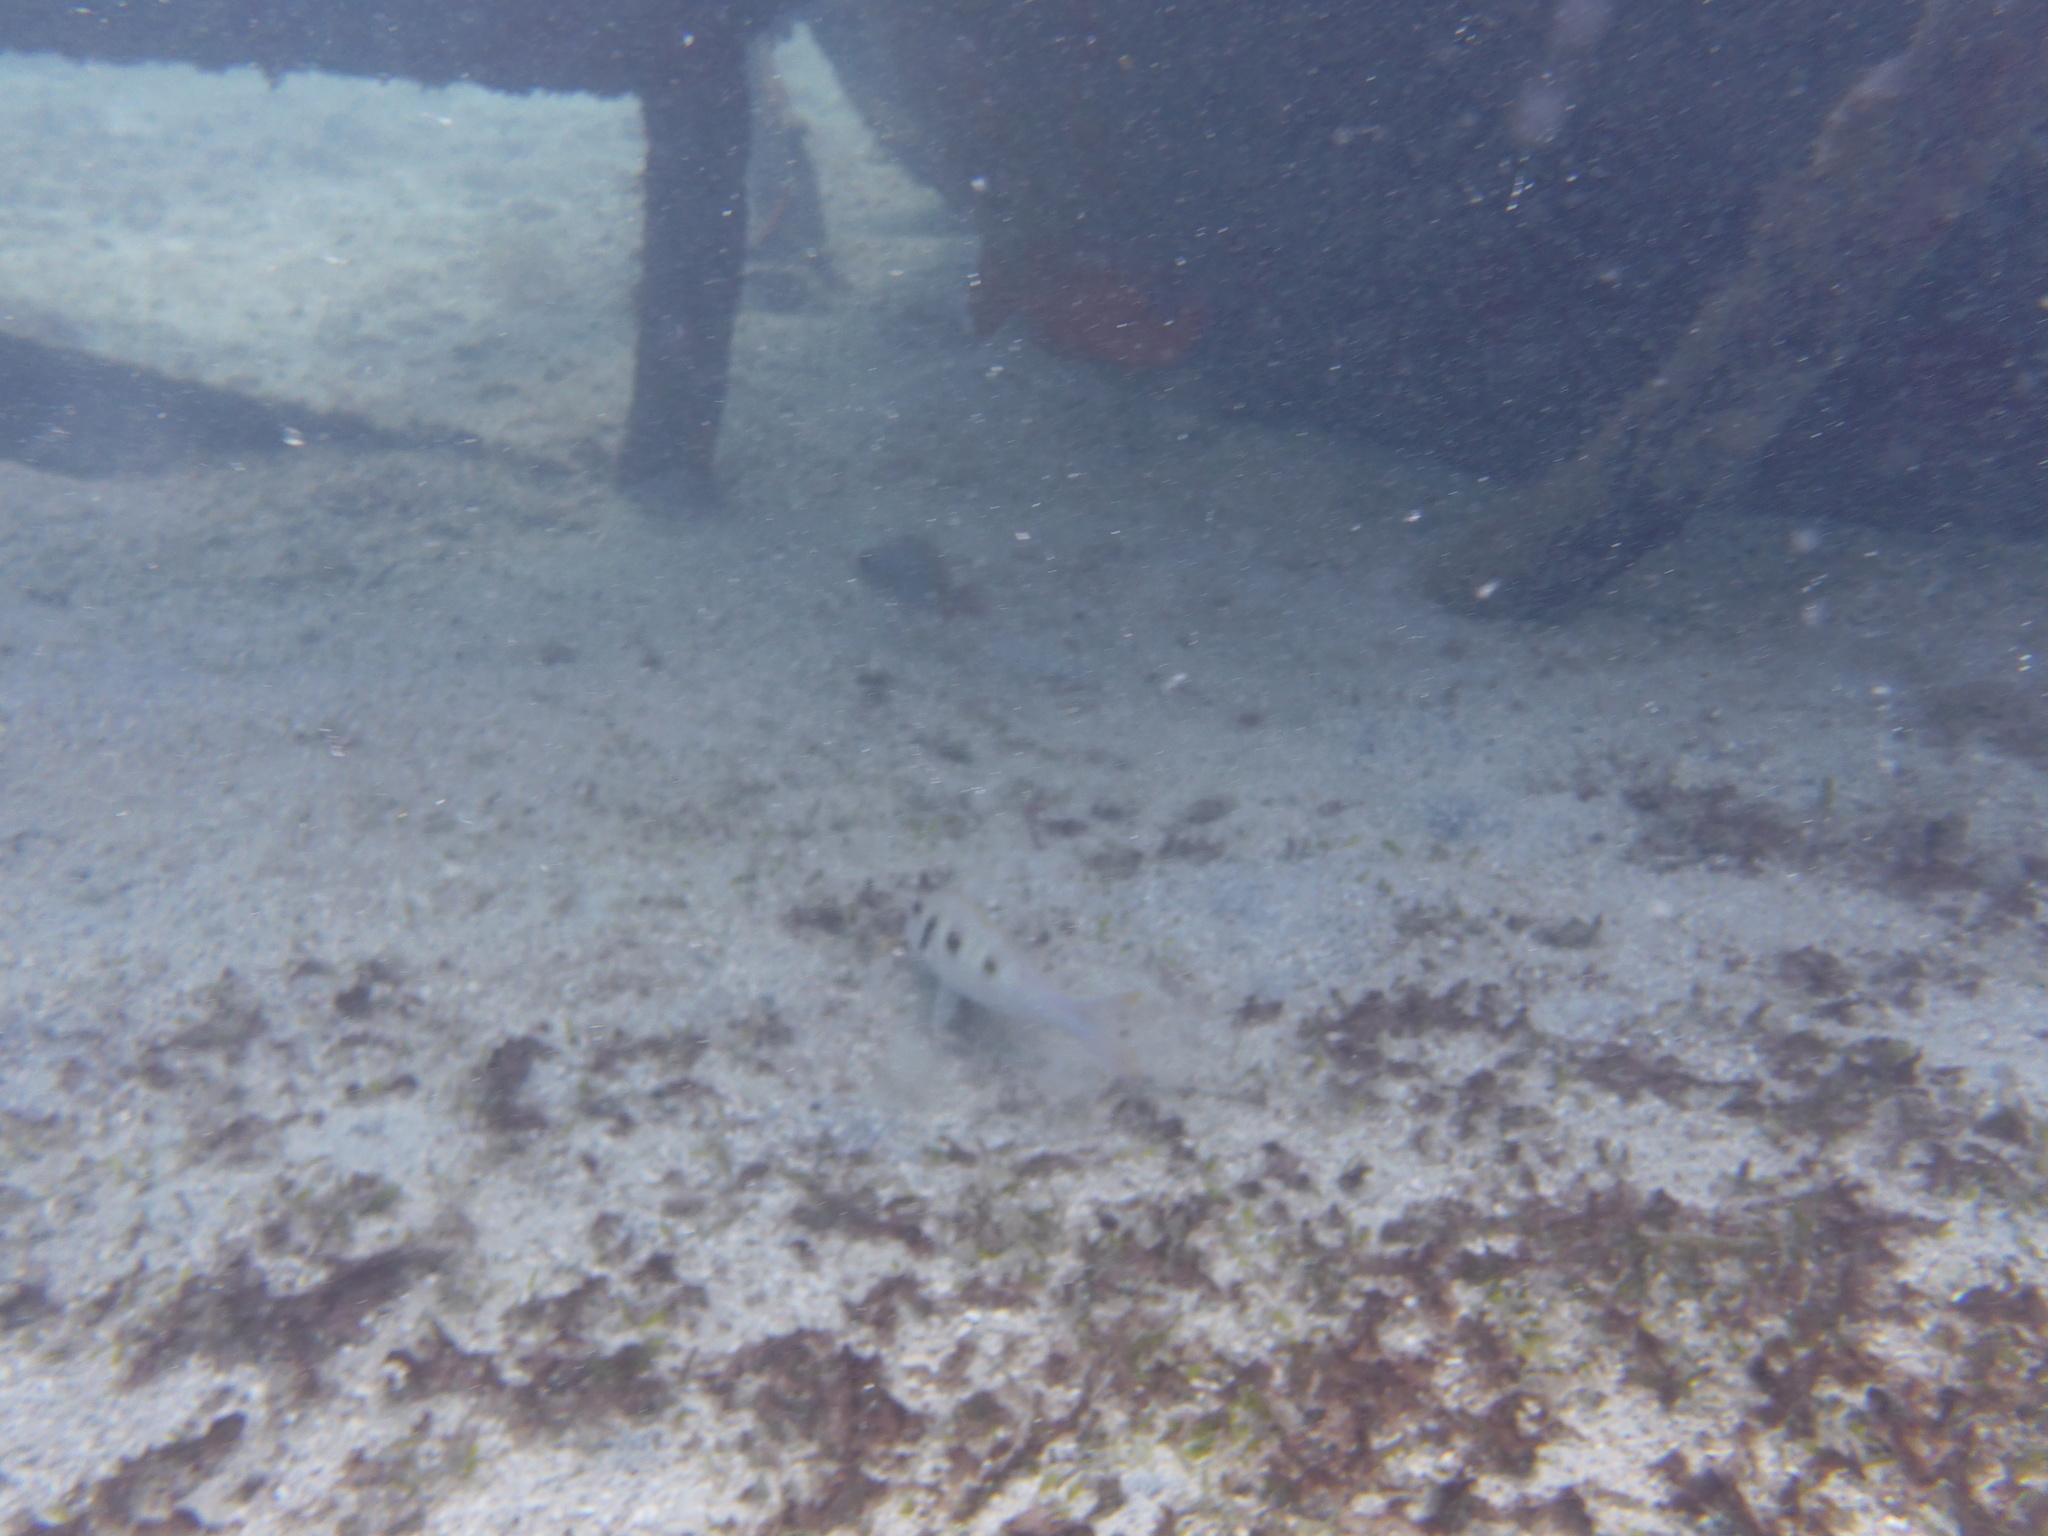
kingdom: Animalia
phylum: Chordata
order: Perciformes
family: Mullidae
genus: Pseudupeneus
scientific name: Pseudupeneus maculatus
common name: Spotted goatfish
